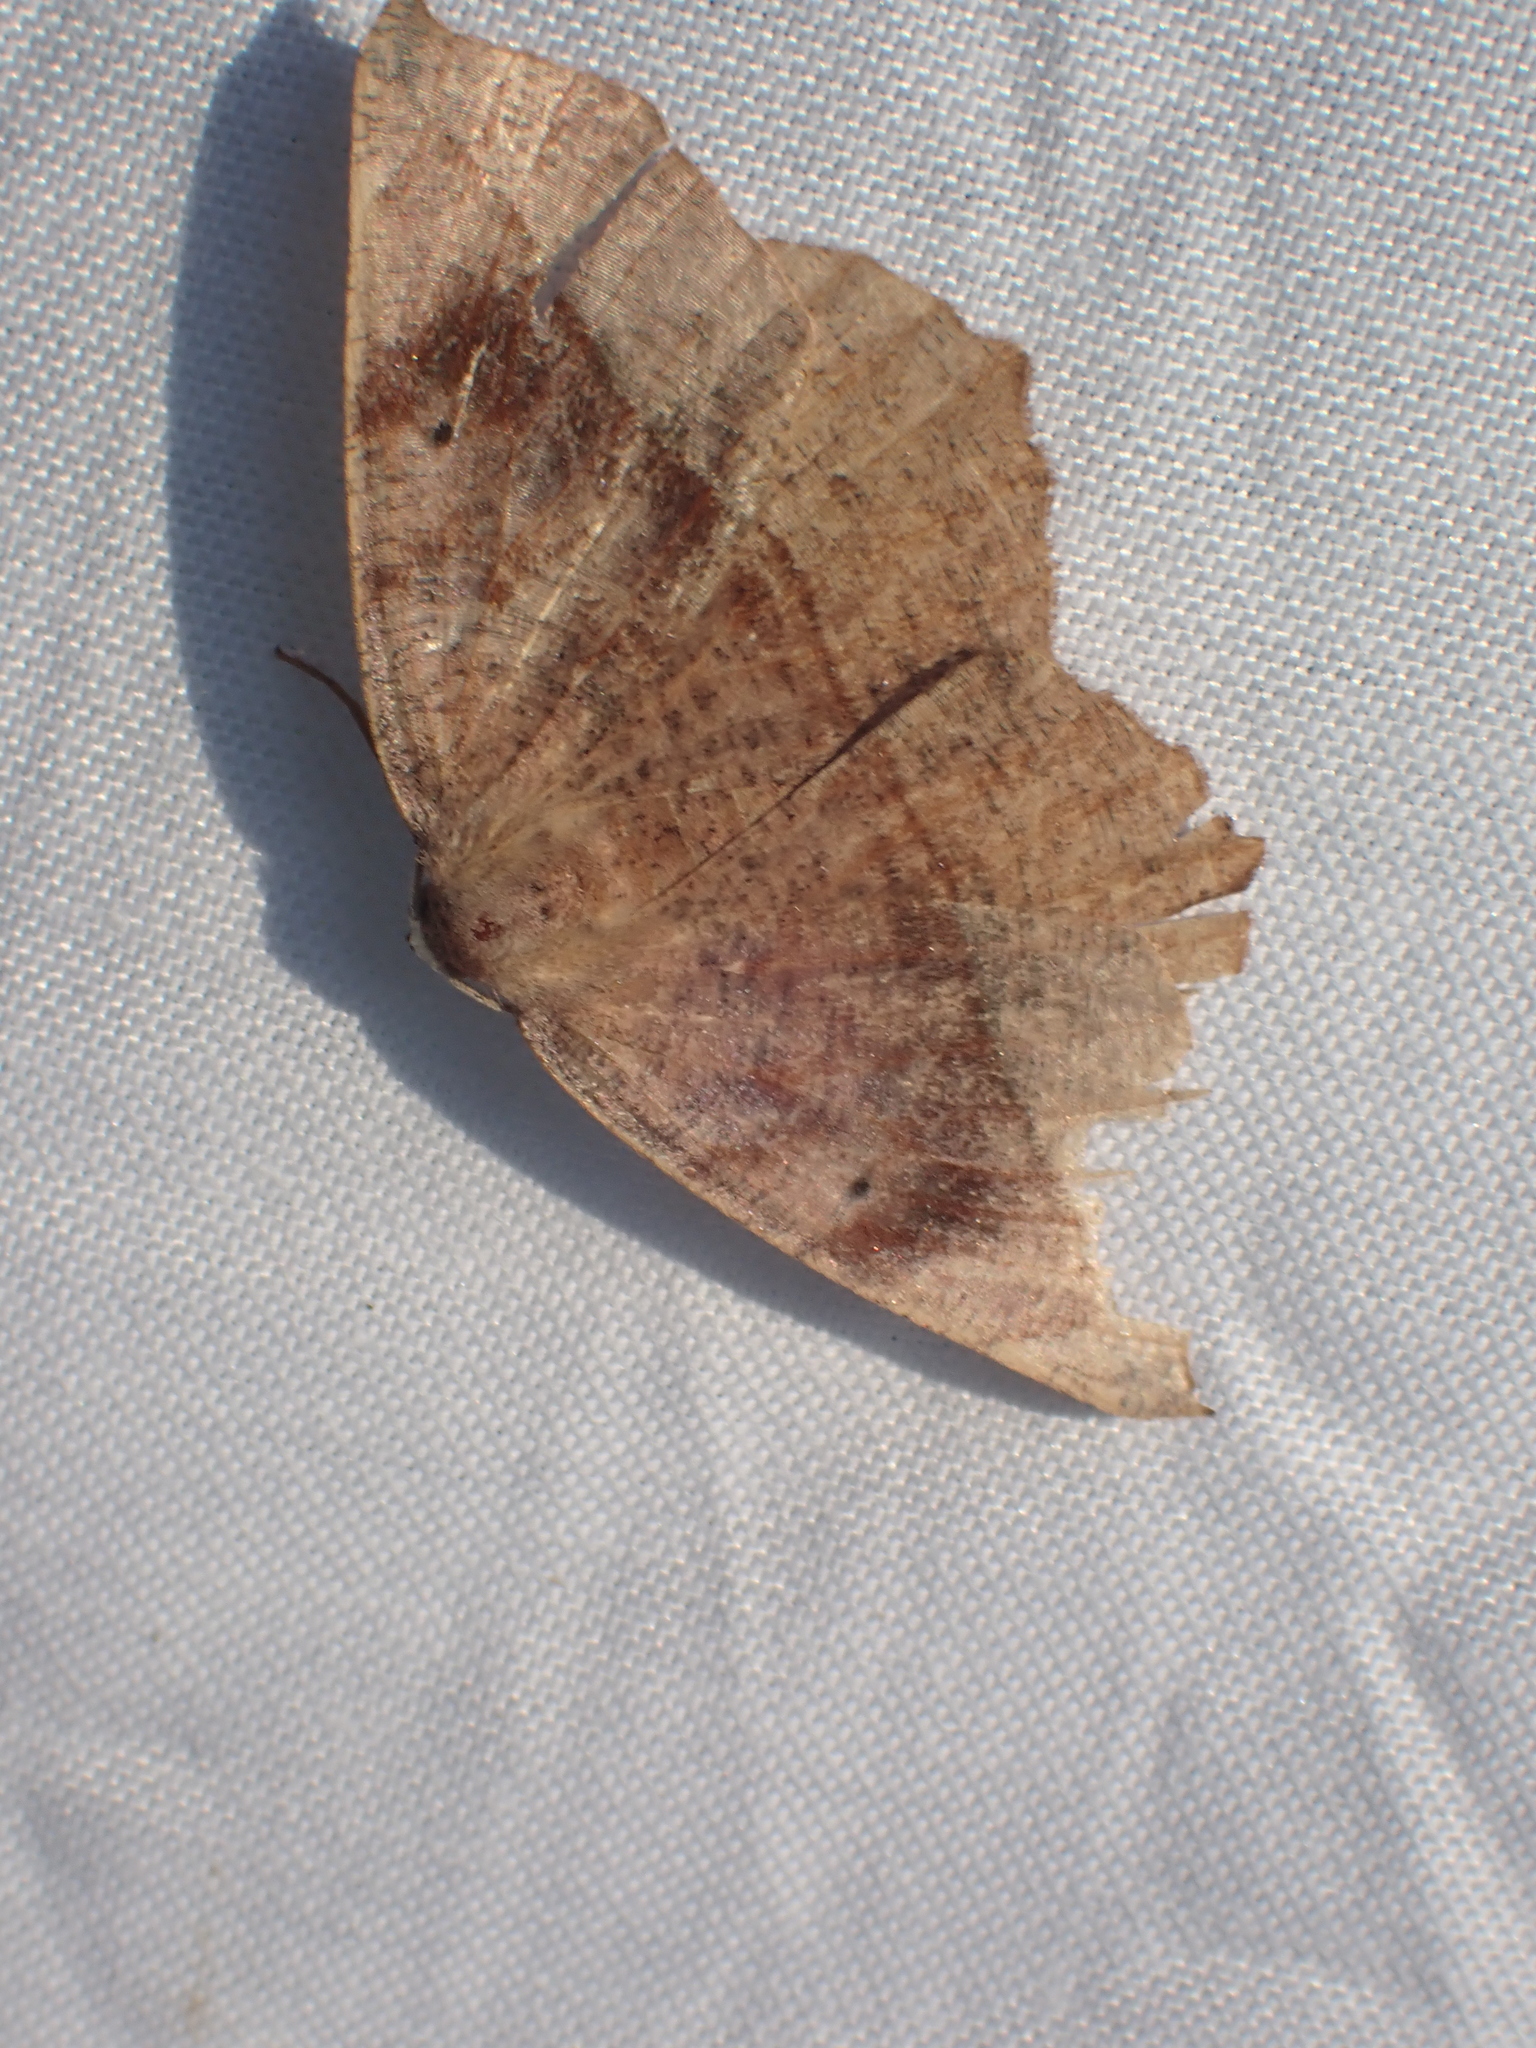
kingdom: Animalia
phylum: Arthropoda
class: Insecta
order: Lepidoptera
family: Geometridae
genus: Eutrapela
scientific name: Eutrapela clemataria
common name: Curved-toothed geometer
